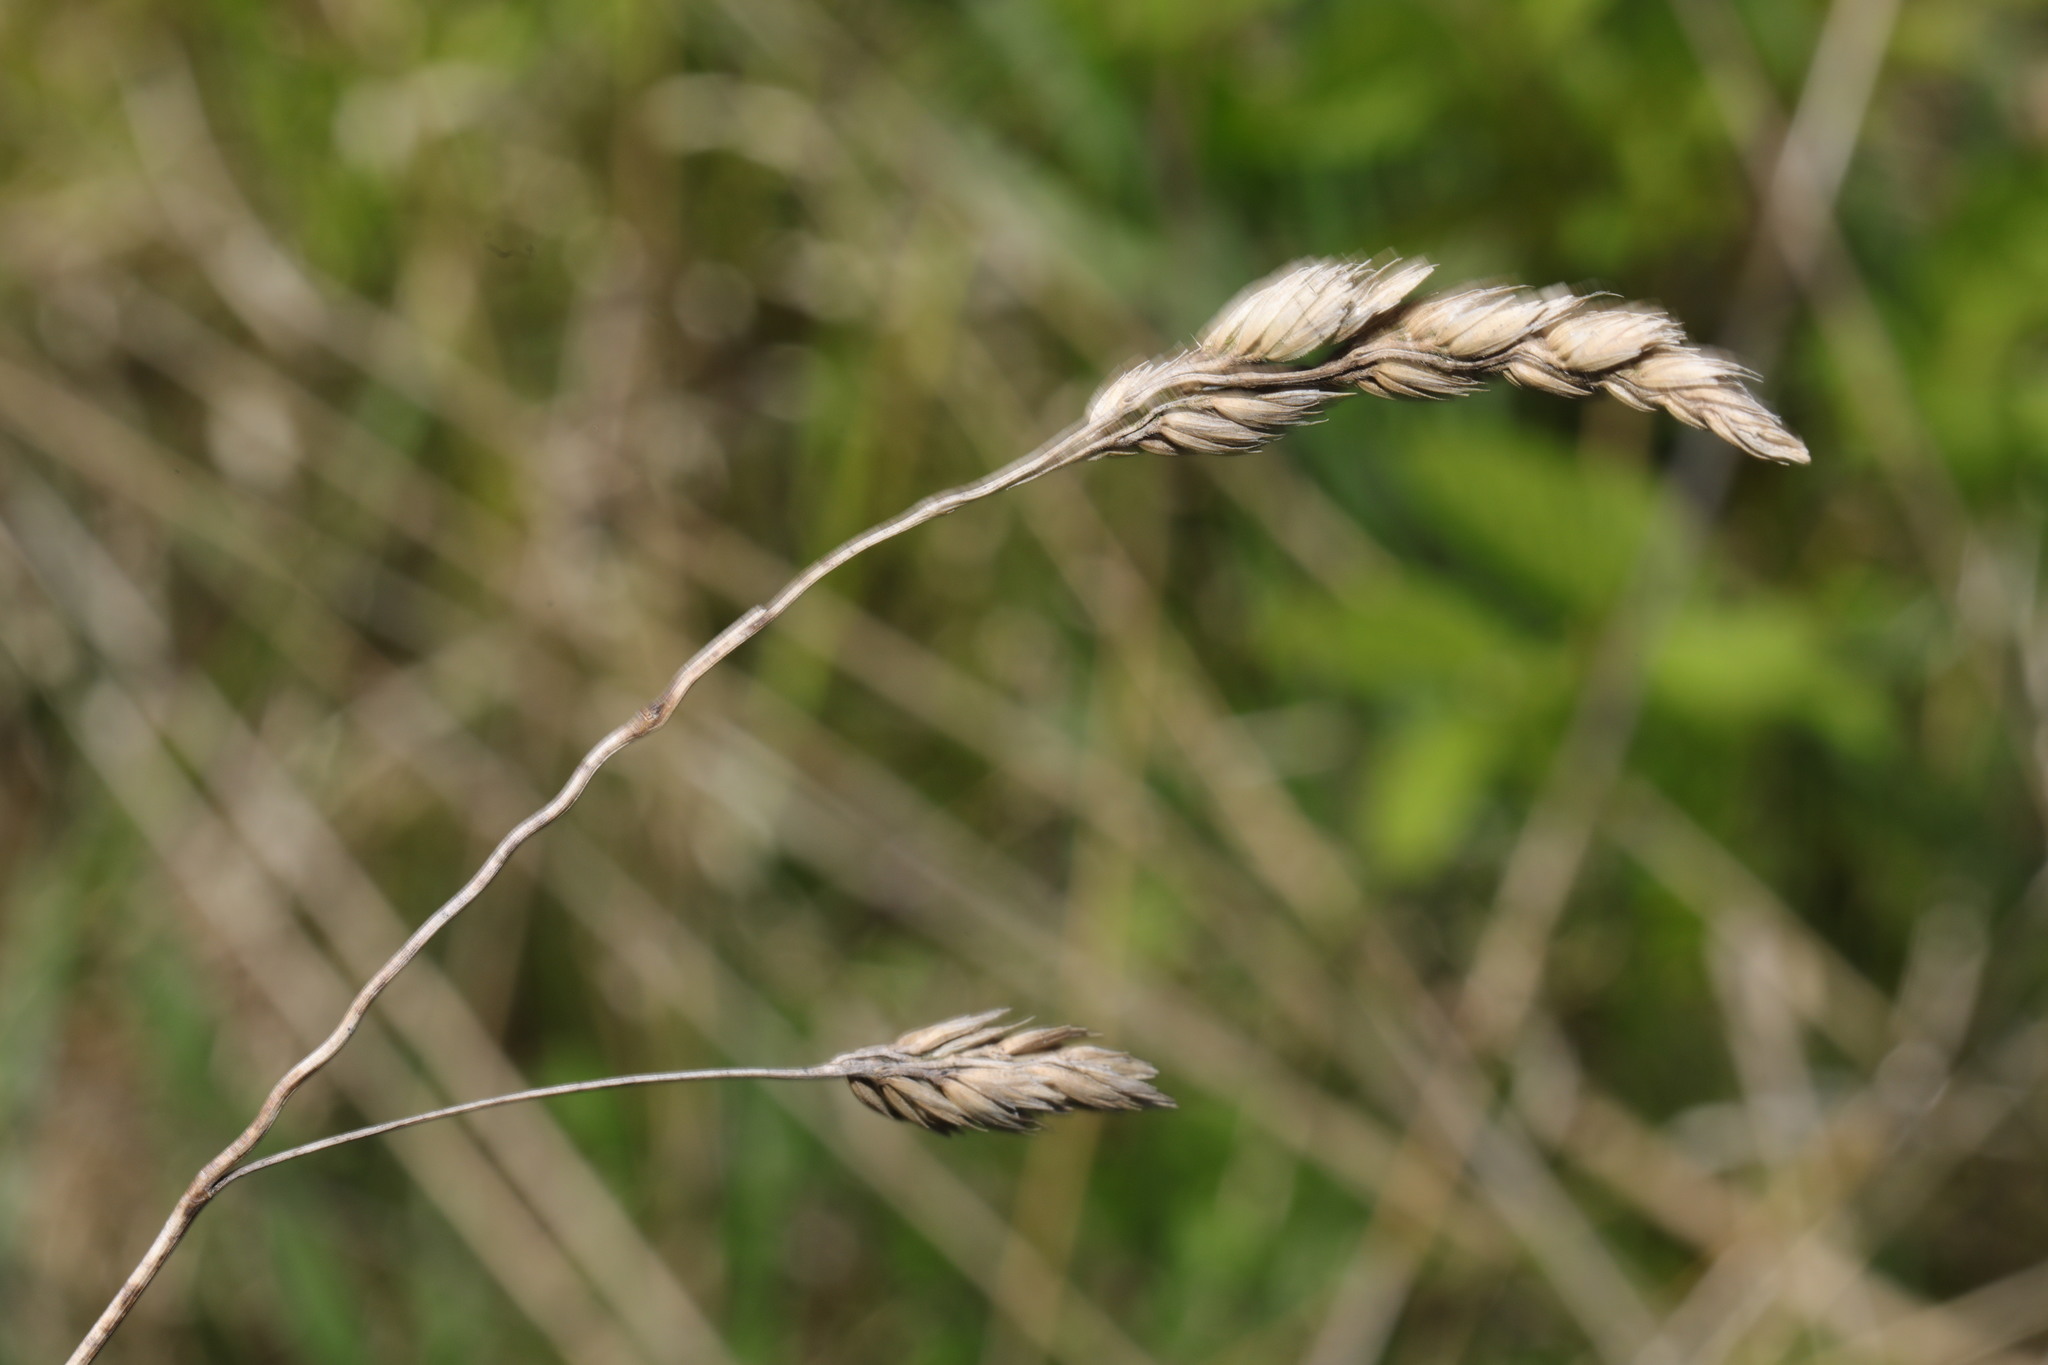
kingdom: Plantae
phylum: Tracheophyta
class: Liliopsida
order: Poales
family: Poaceae
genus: Dactylis
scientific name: Dactylis glomerata
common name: Orchardgrass
